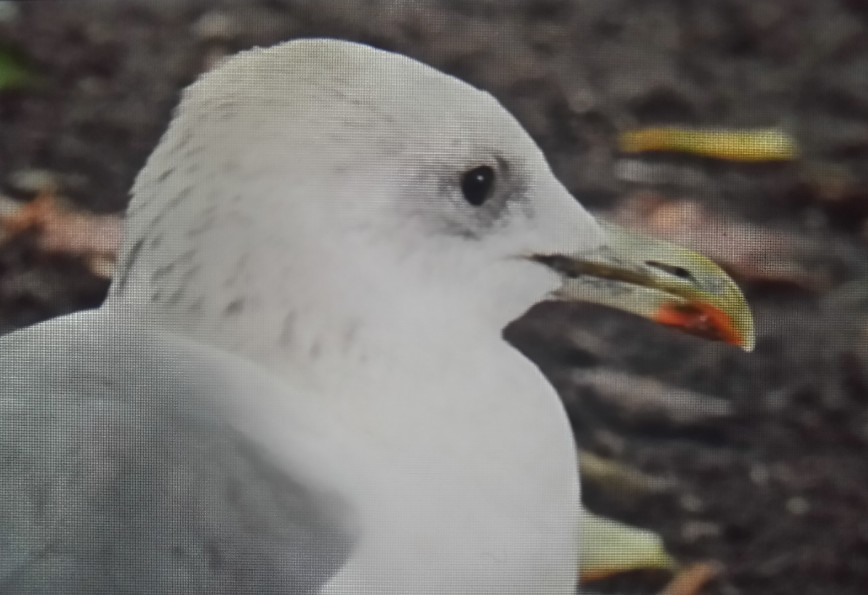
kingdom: Animalia
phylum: Chordata
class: Aves
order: Charadriiformes
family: Laridae
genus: Larus
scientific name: Larus canus
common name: Mew gull
